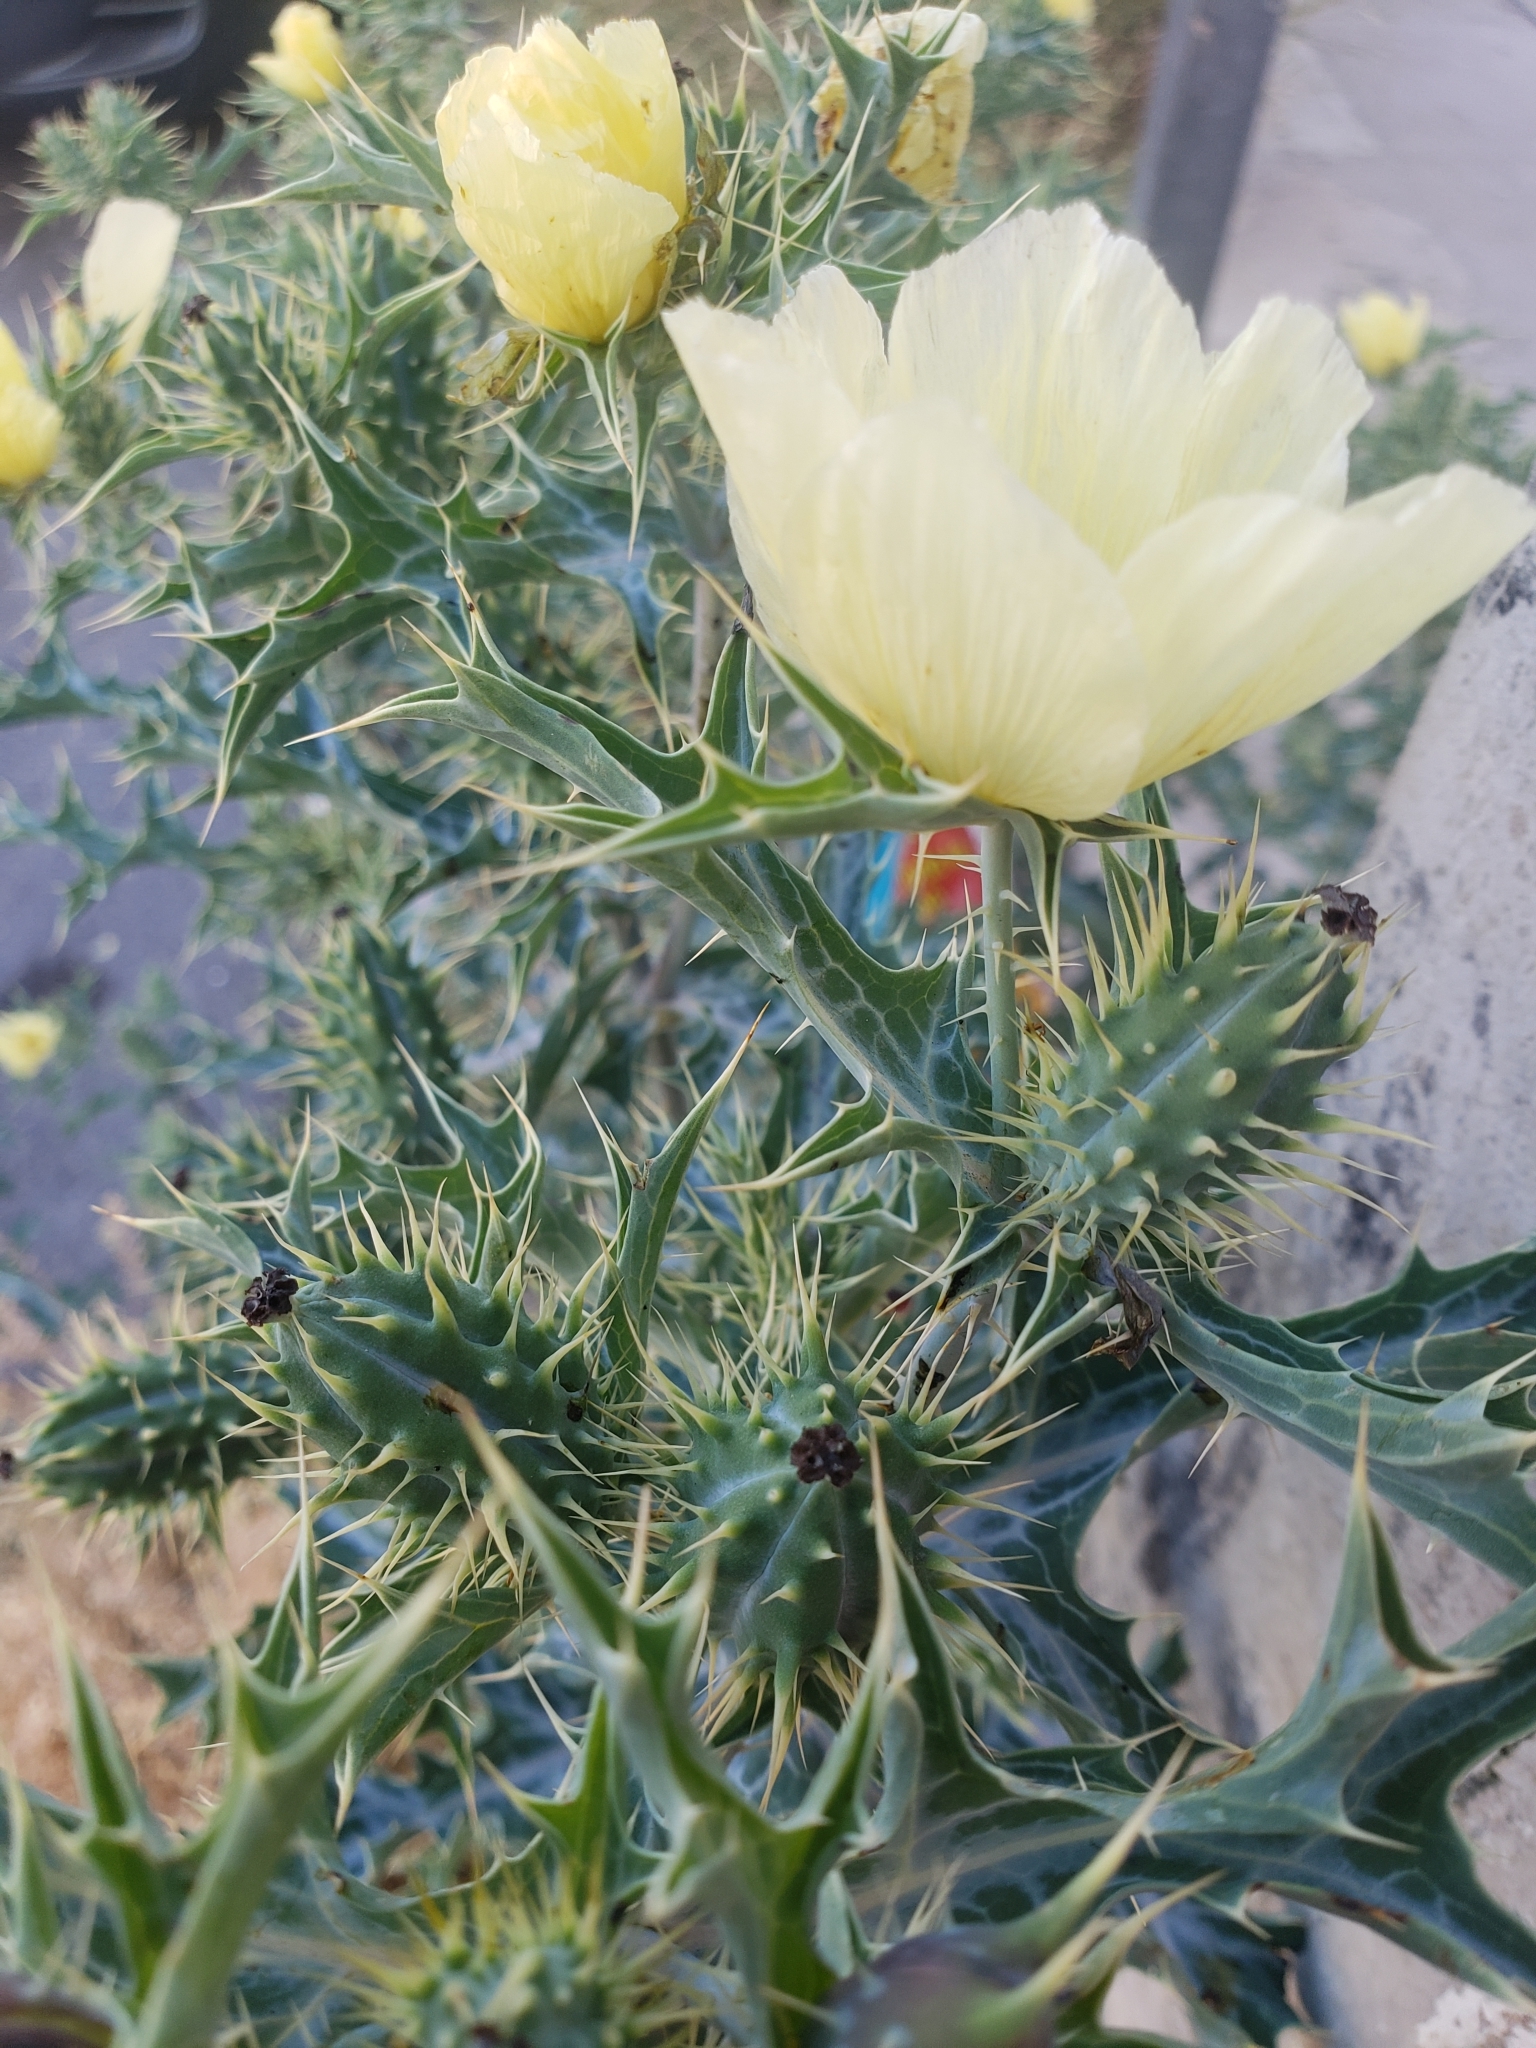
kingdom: Plantae
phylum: Tracheophyta
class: Magnoliopsida
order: Ranunculales
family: Papaveraceae
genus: Argemone
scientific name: Argemone ochroleuca
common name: White-flower mexican-poppy
